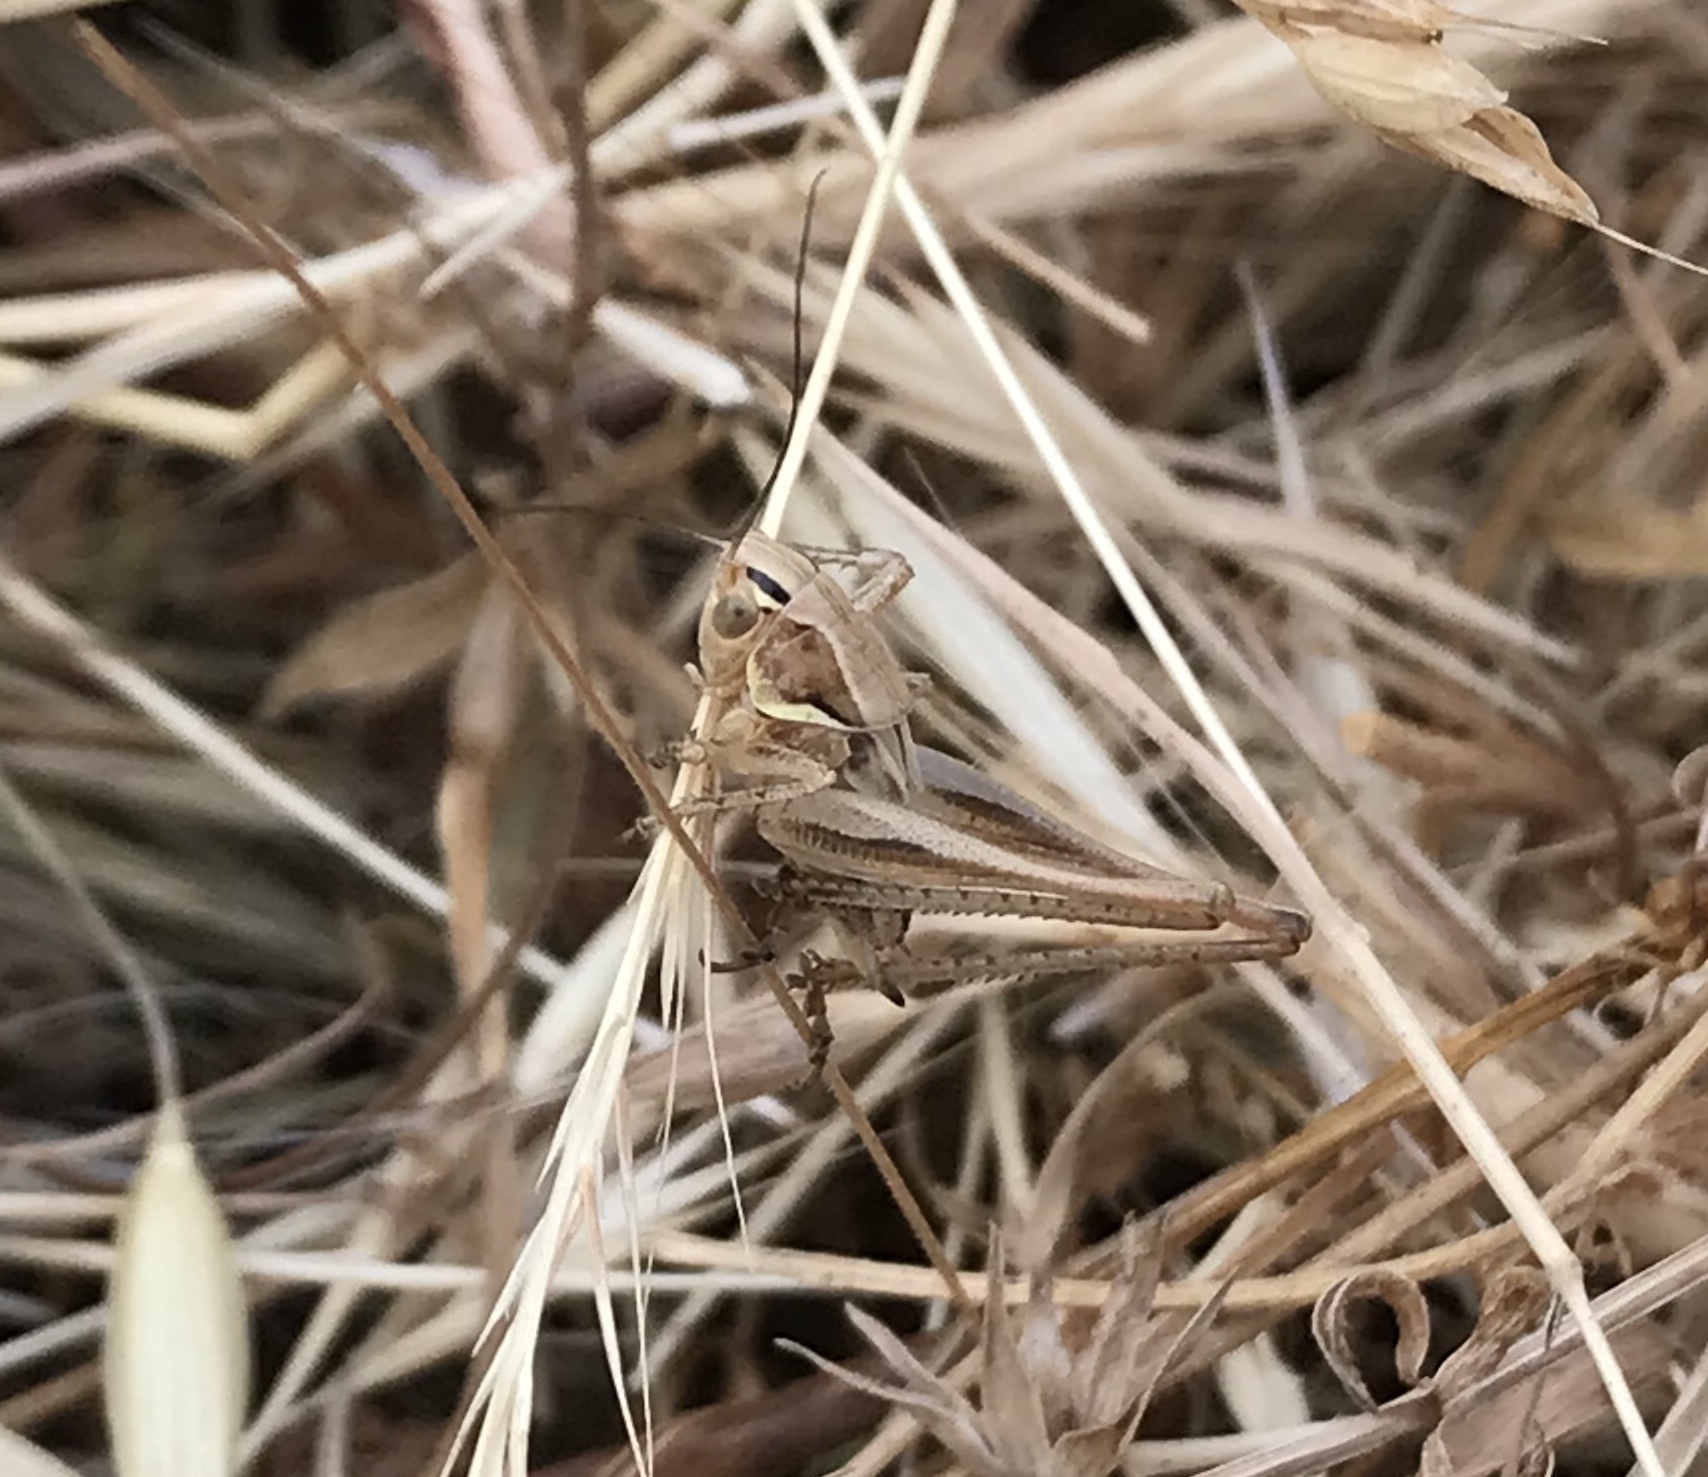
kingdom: Animalia
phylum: Arthropoda
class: Insecta
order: Orthoptera
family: Tettigoniidae
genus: Tessellana
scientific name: Tessellana tessellata
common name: Grasshopper
